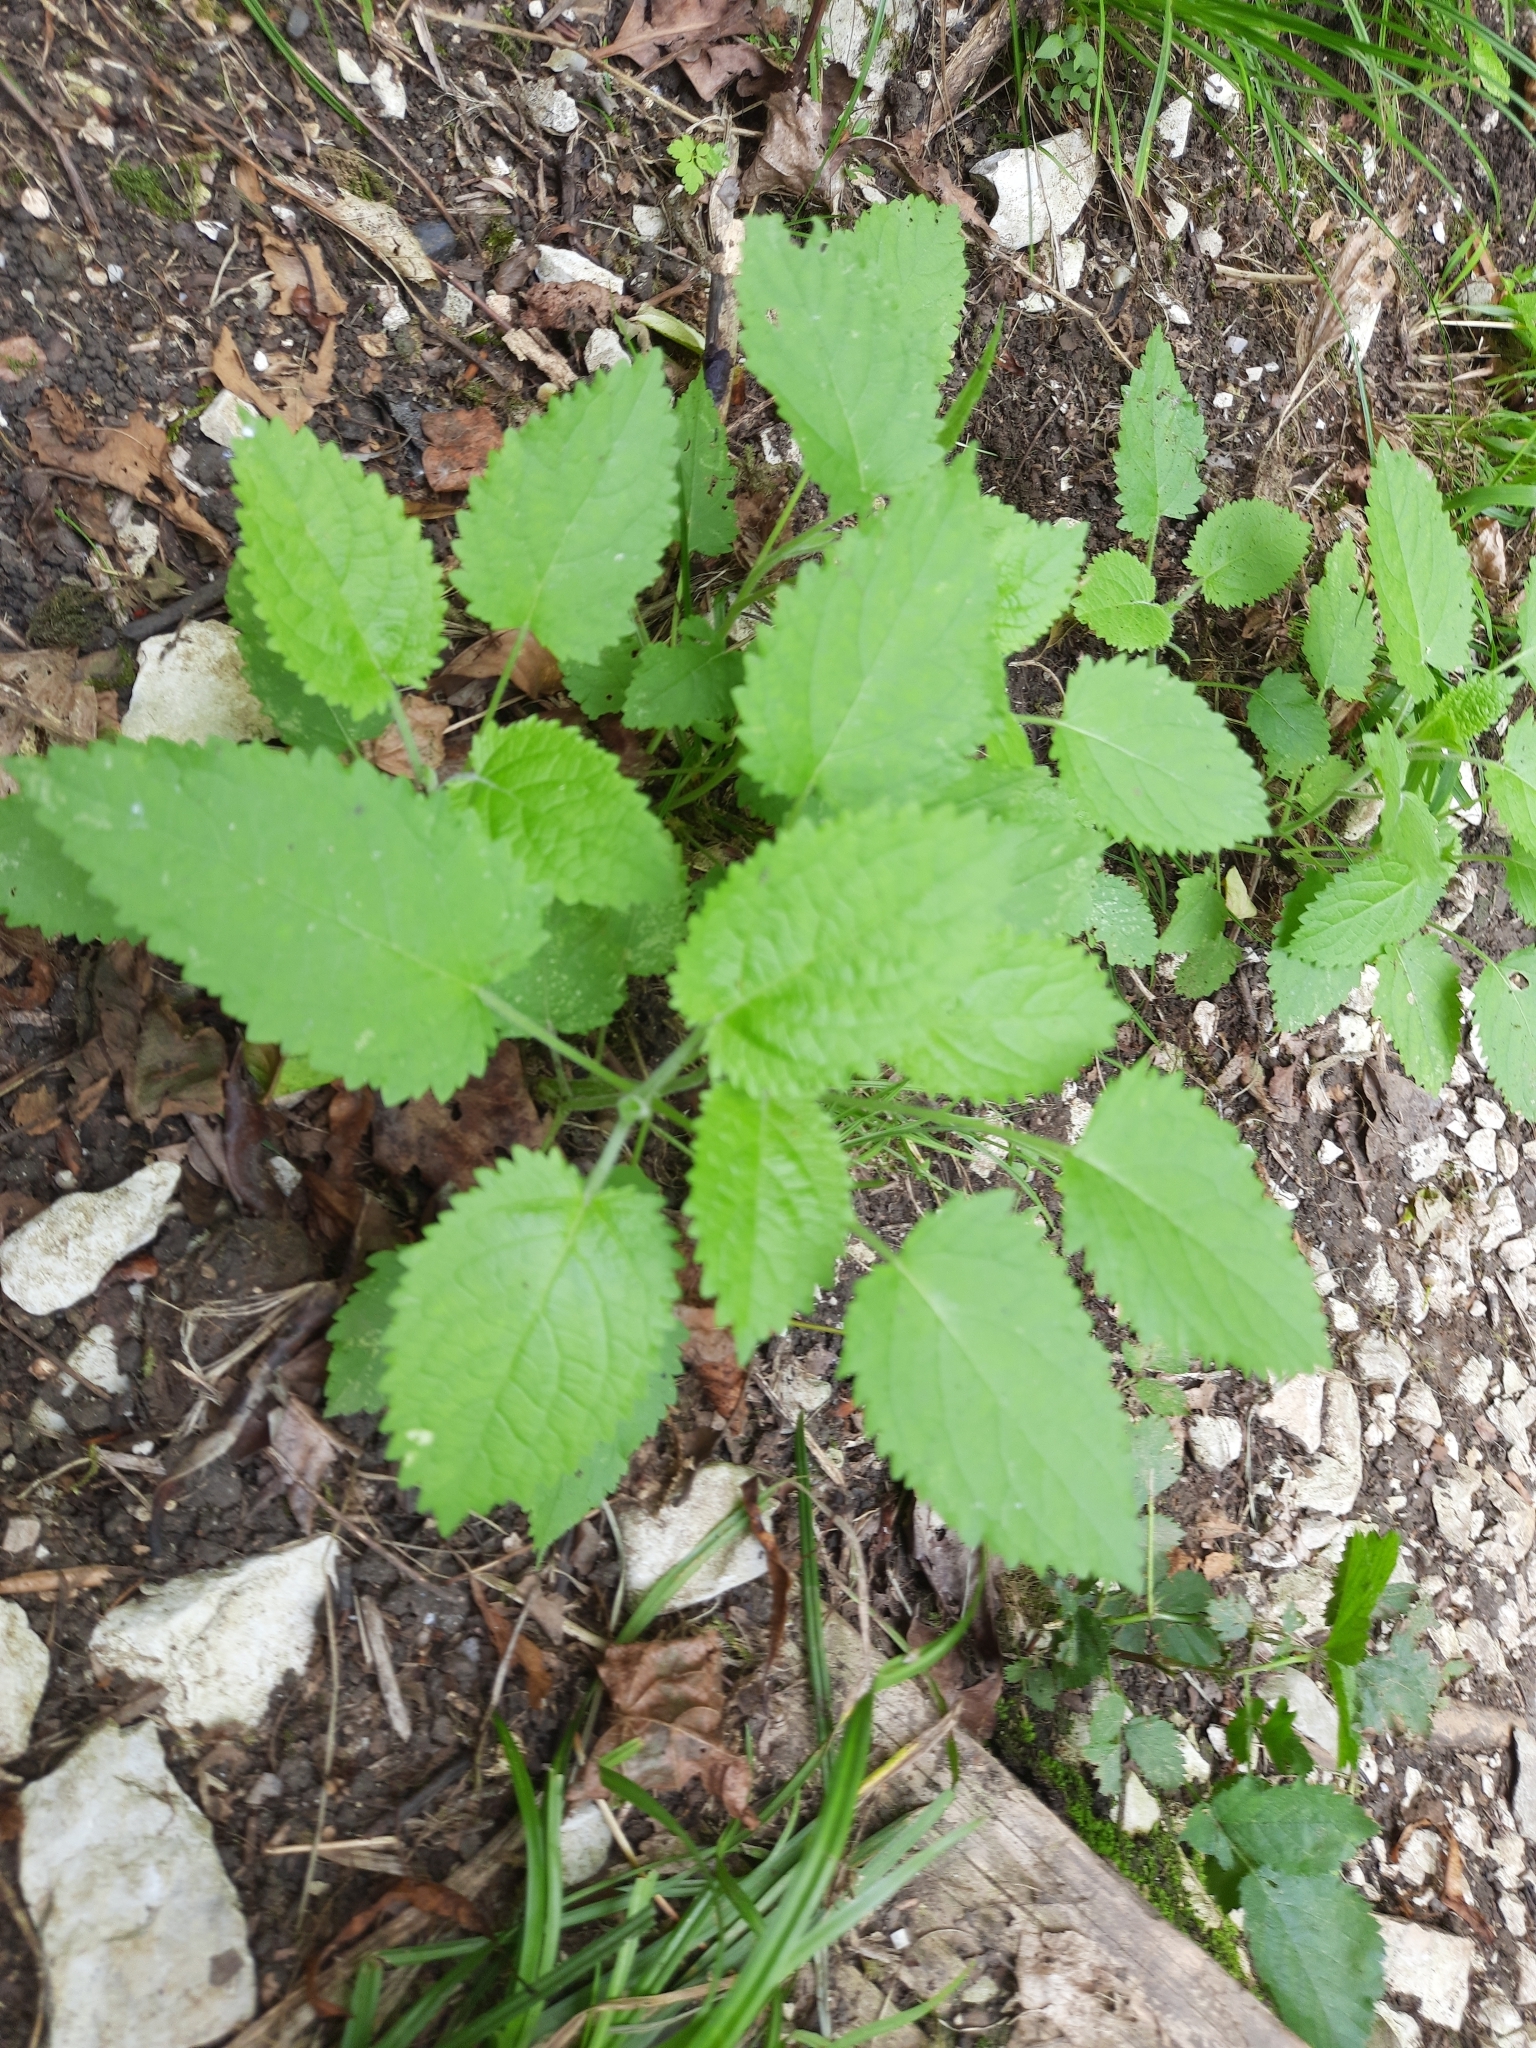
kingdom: Plantae
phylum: Tracheophyta
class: Magnoliopsida
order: Lamiales
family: Lamiaceae
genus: Stachys
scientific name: Stachys sylvatica
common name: Hedge woundwort
